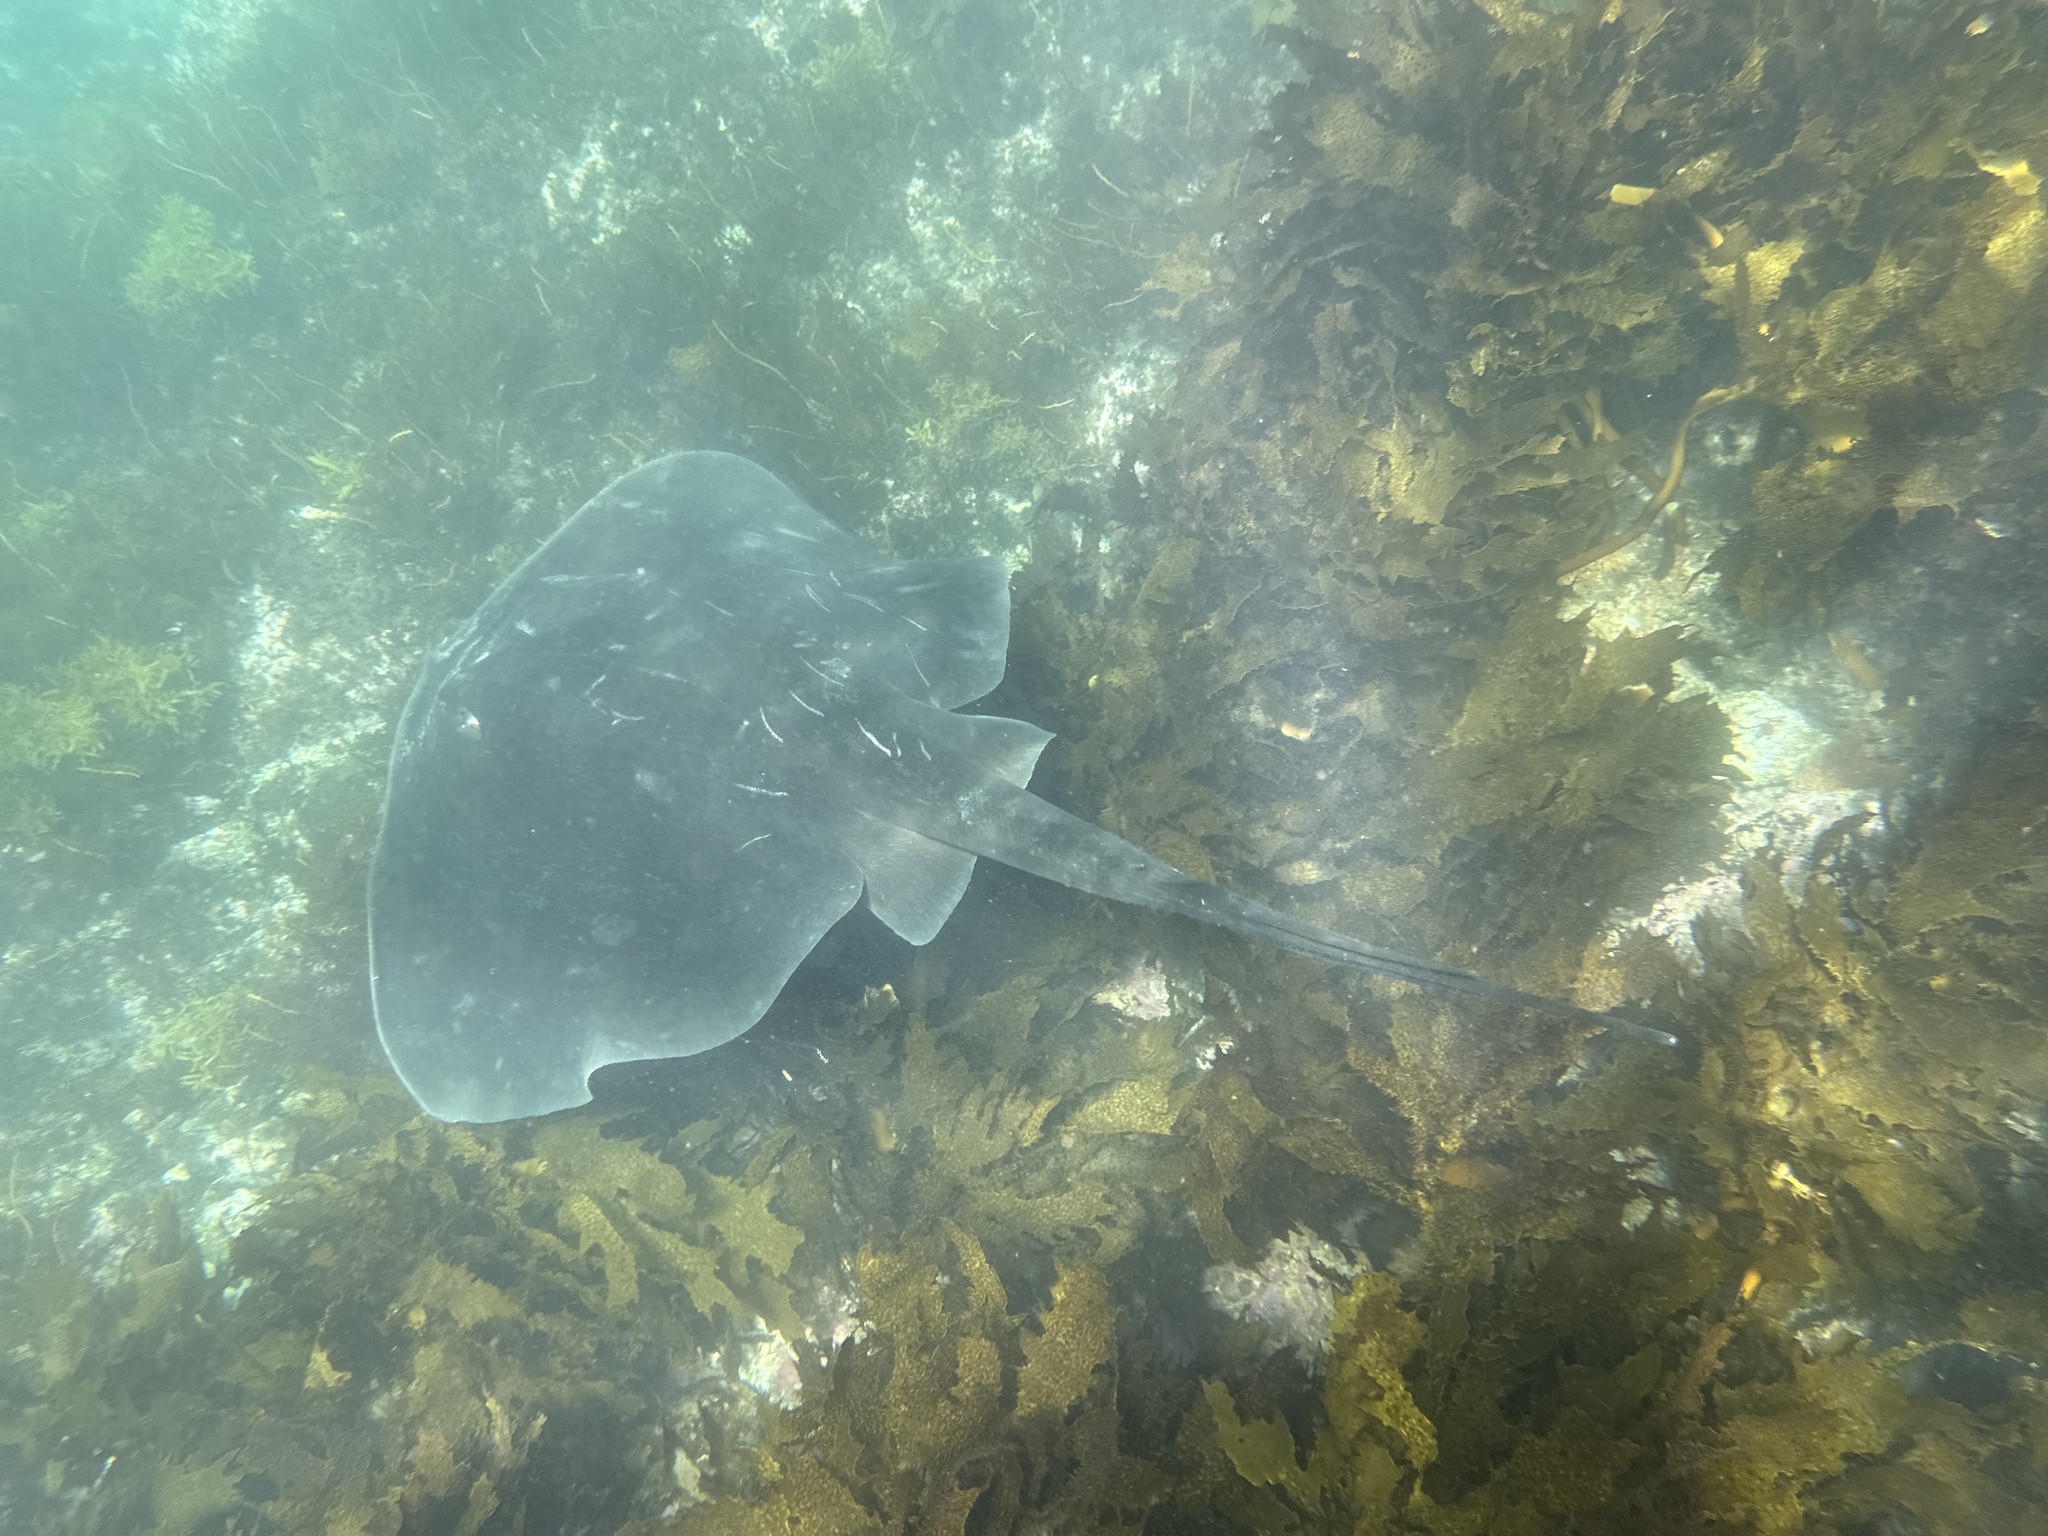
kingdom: Animalia
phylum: Chordata
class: Elasmobranchii
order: Myliobatiformes
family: Dasyatidae
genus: Bathytoshia
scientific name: Bathytoshia brevicaudata
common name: Short-tail stingray
